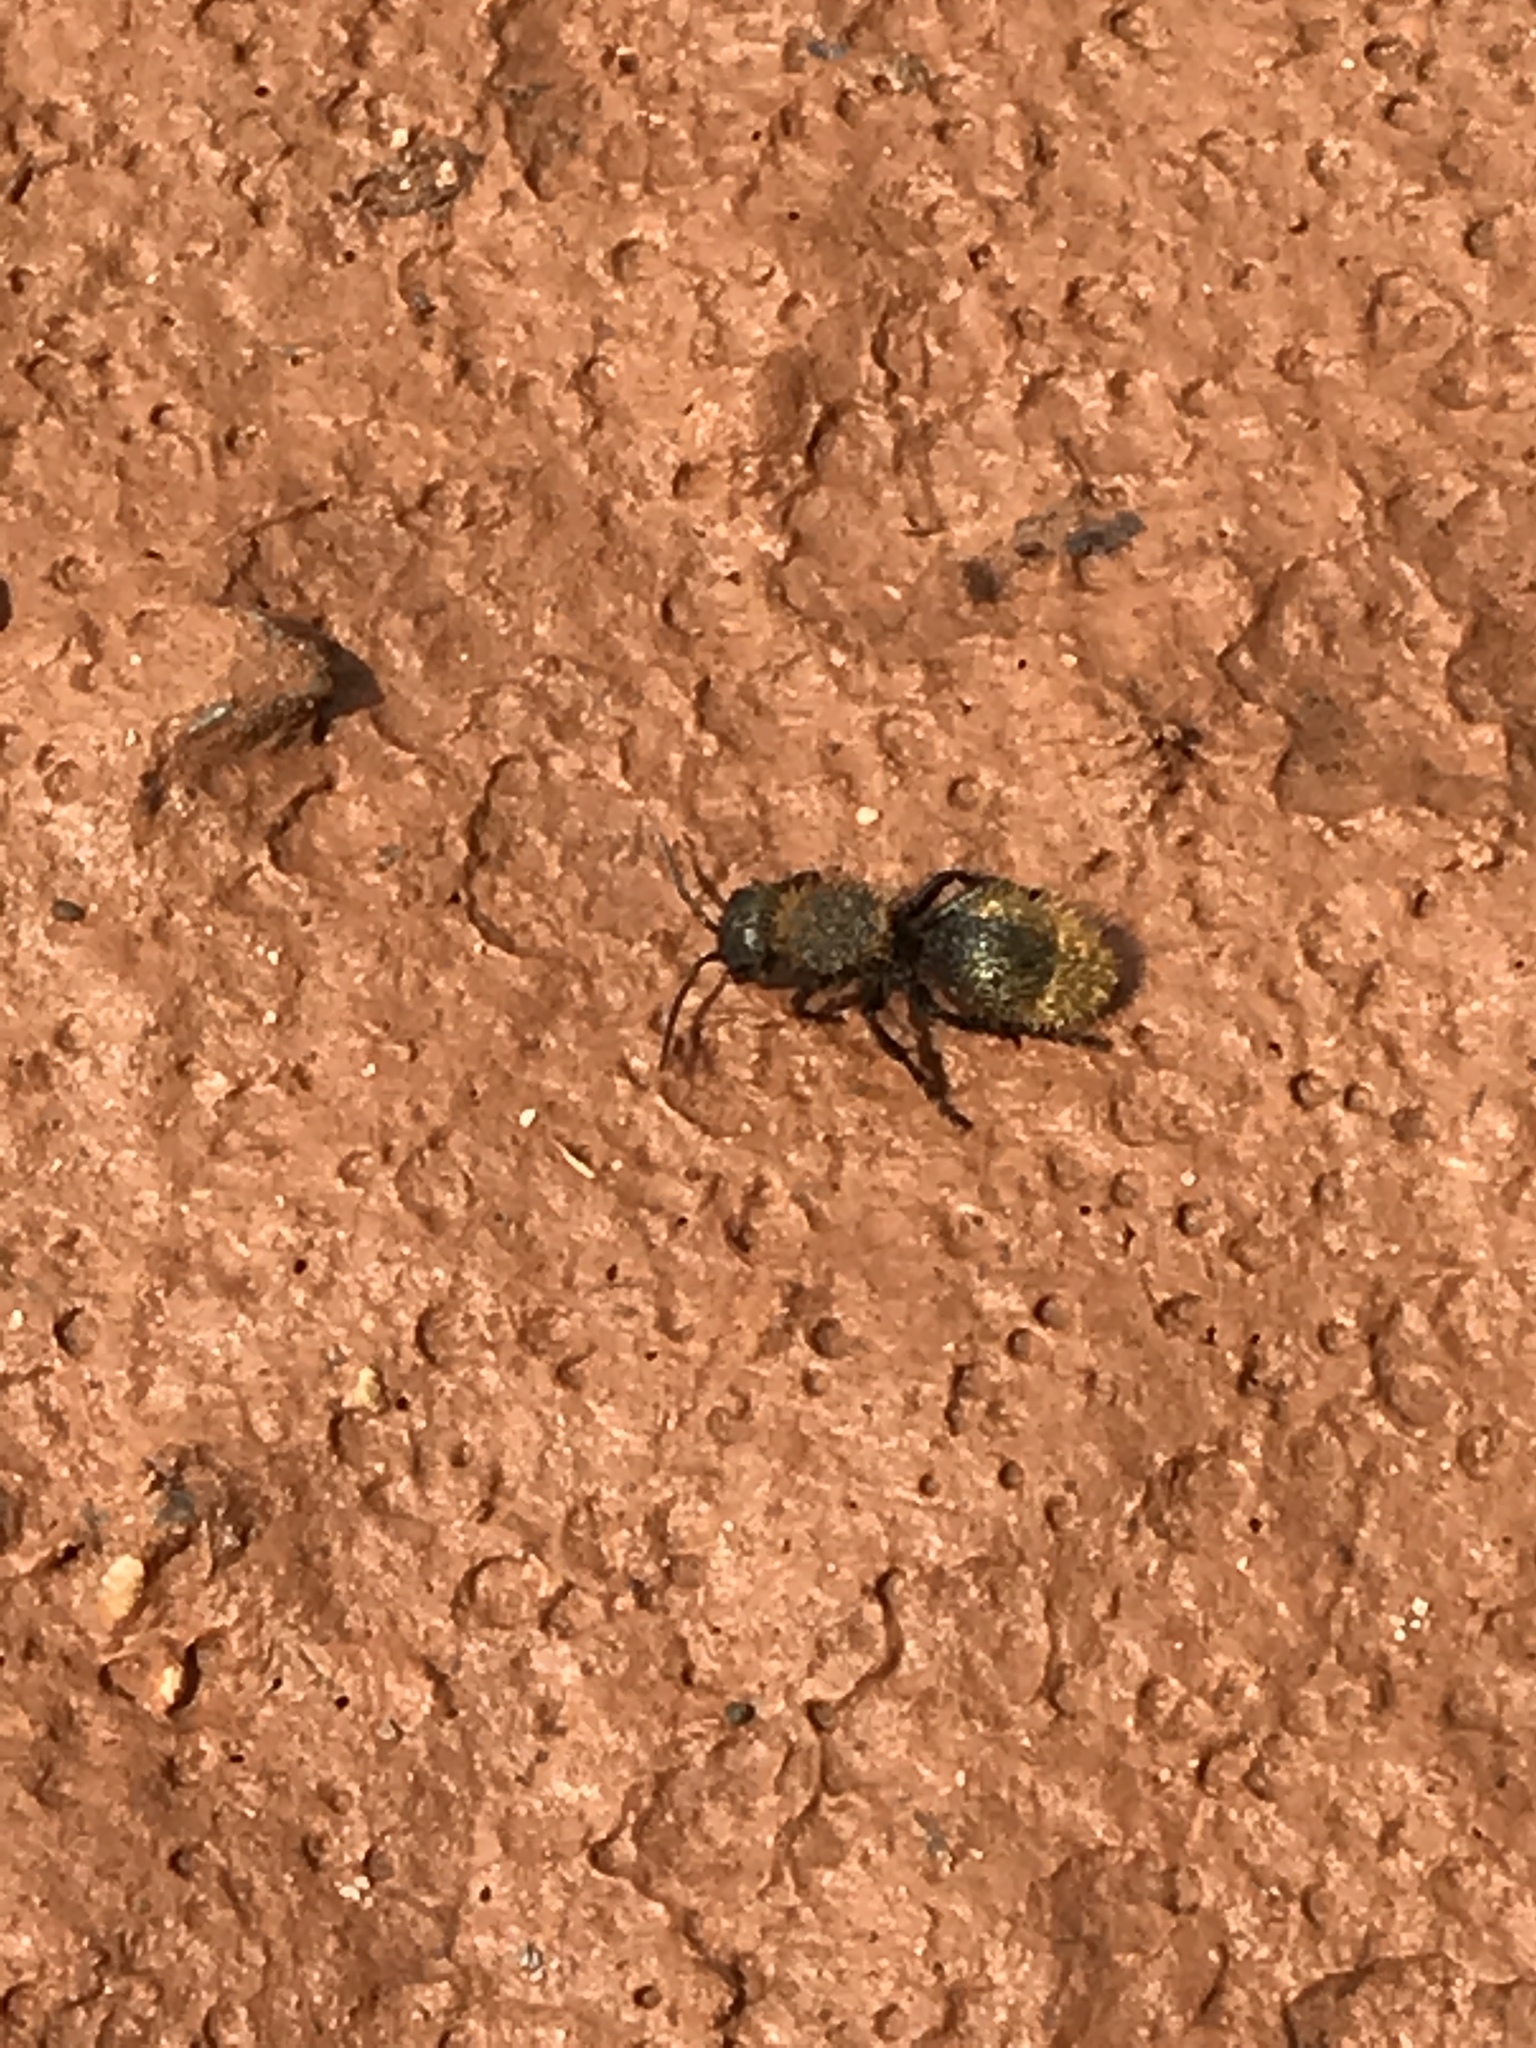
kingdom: Animalia
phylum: Arthropoda
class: Insecta
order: Hymenoptera
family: Mutillidae
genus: Dasymutilla
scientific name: Dasymutilla
